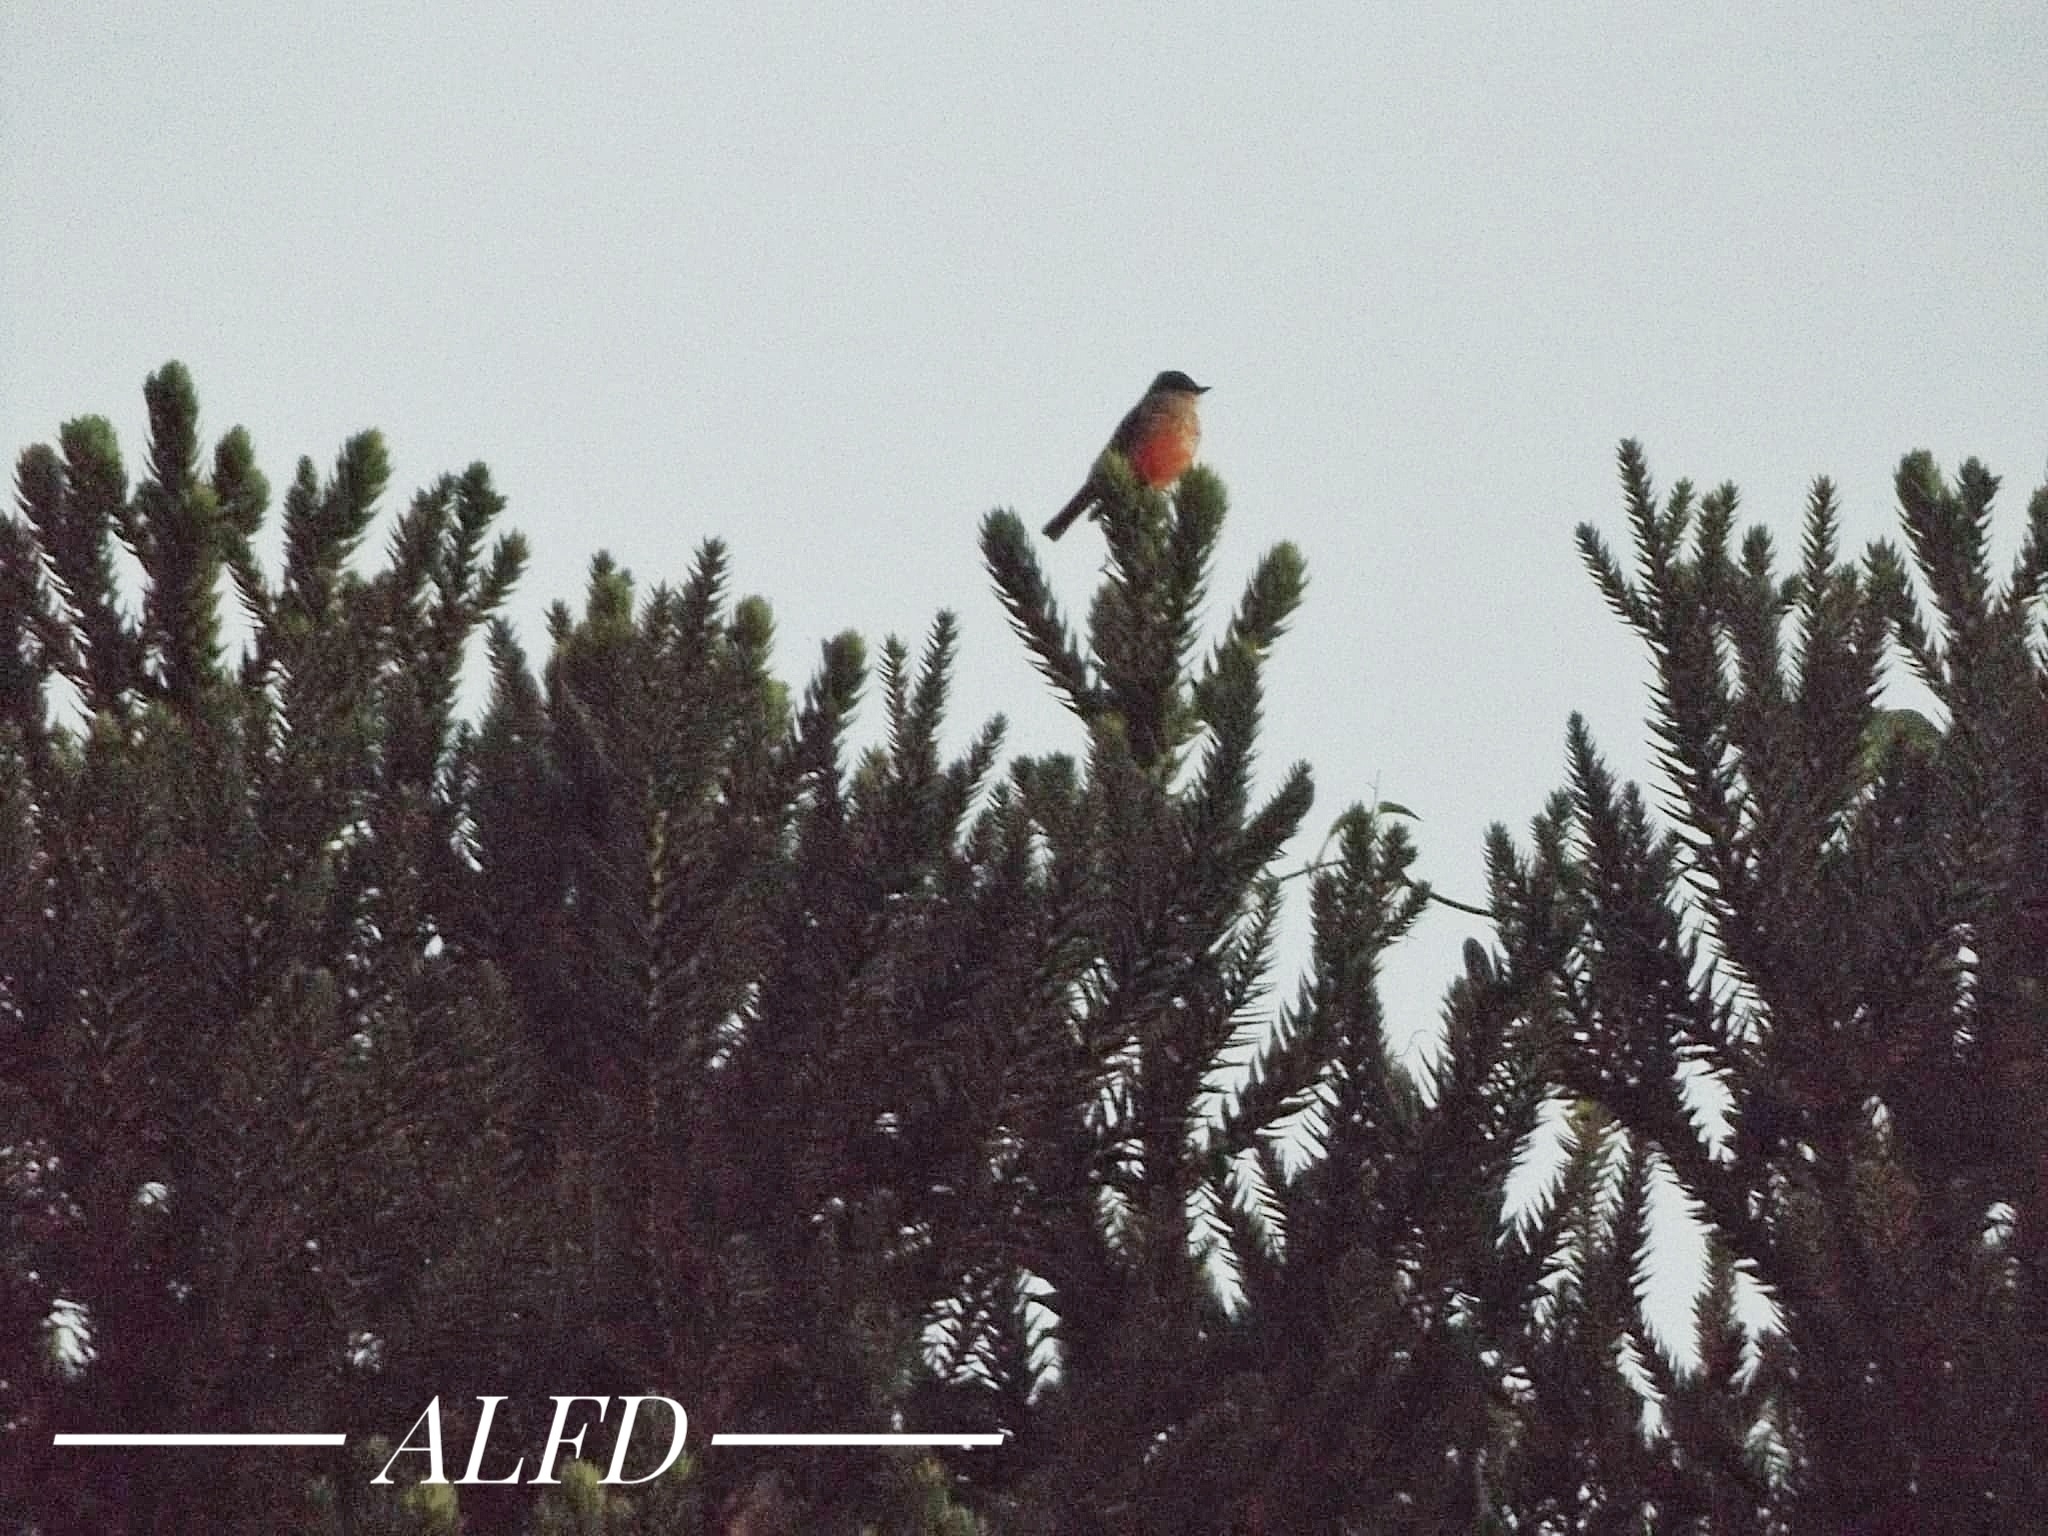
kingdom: Animalia
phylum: Chordata
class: Aves
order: Passeriformes
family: Tyrannidae
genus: Pyrocephalus
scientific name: Pyrocephalus rubinus
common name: Vermilion flycatcher
